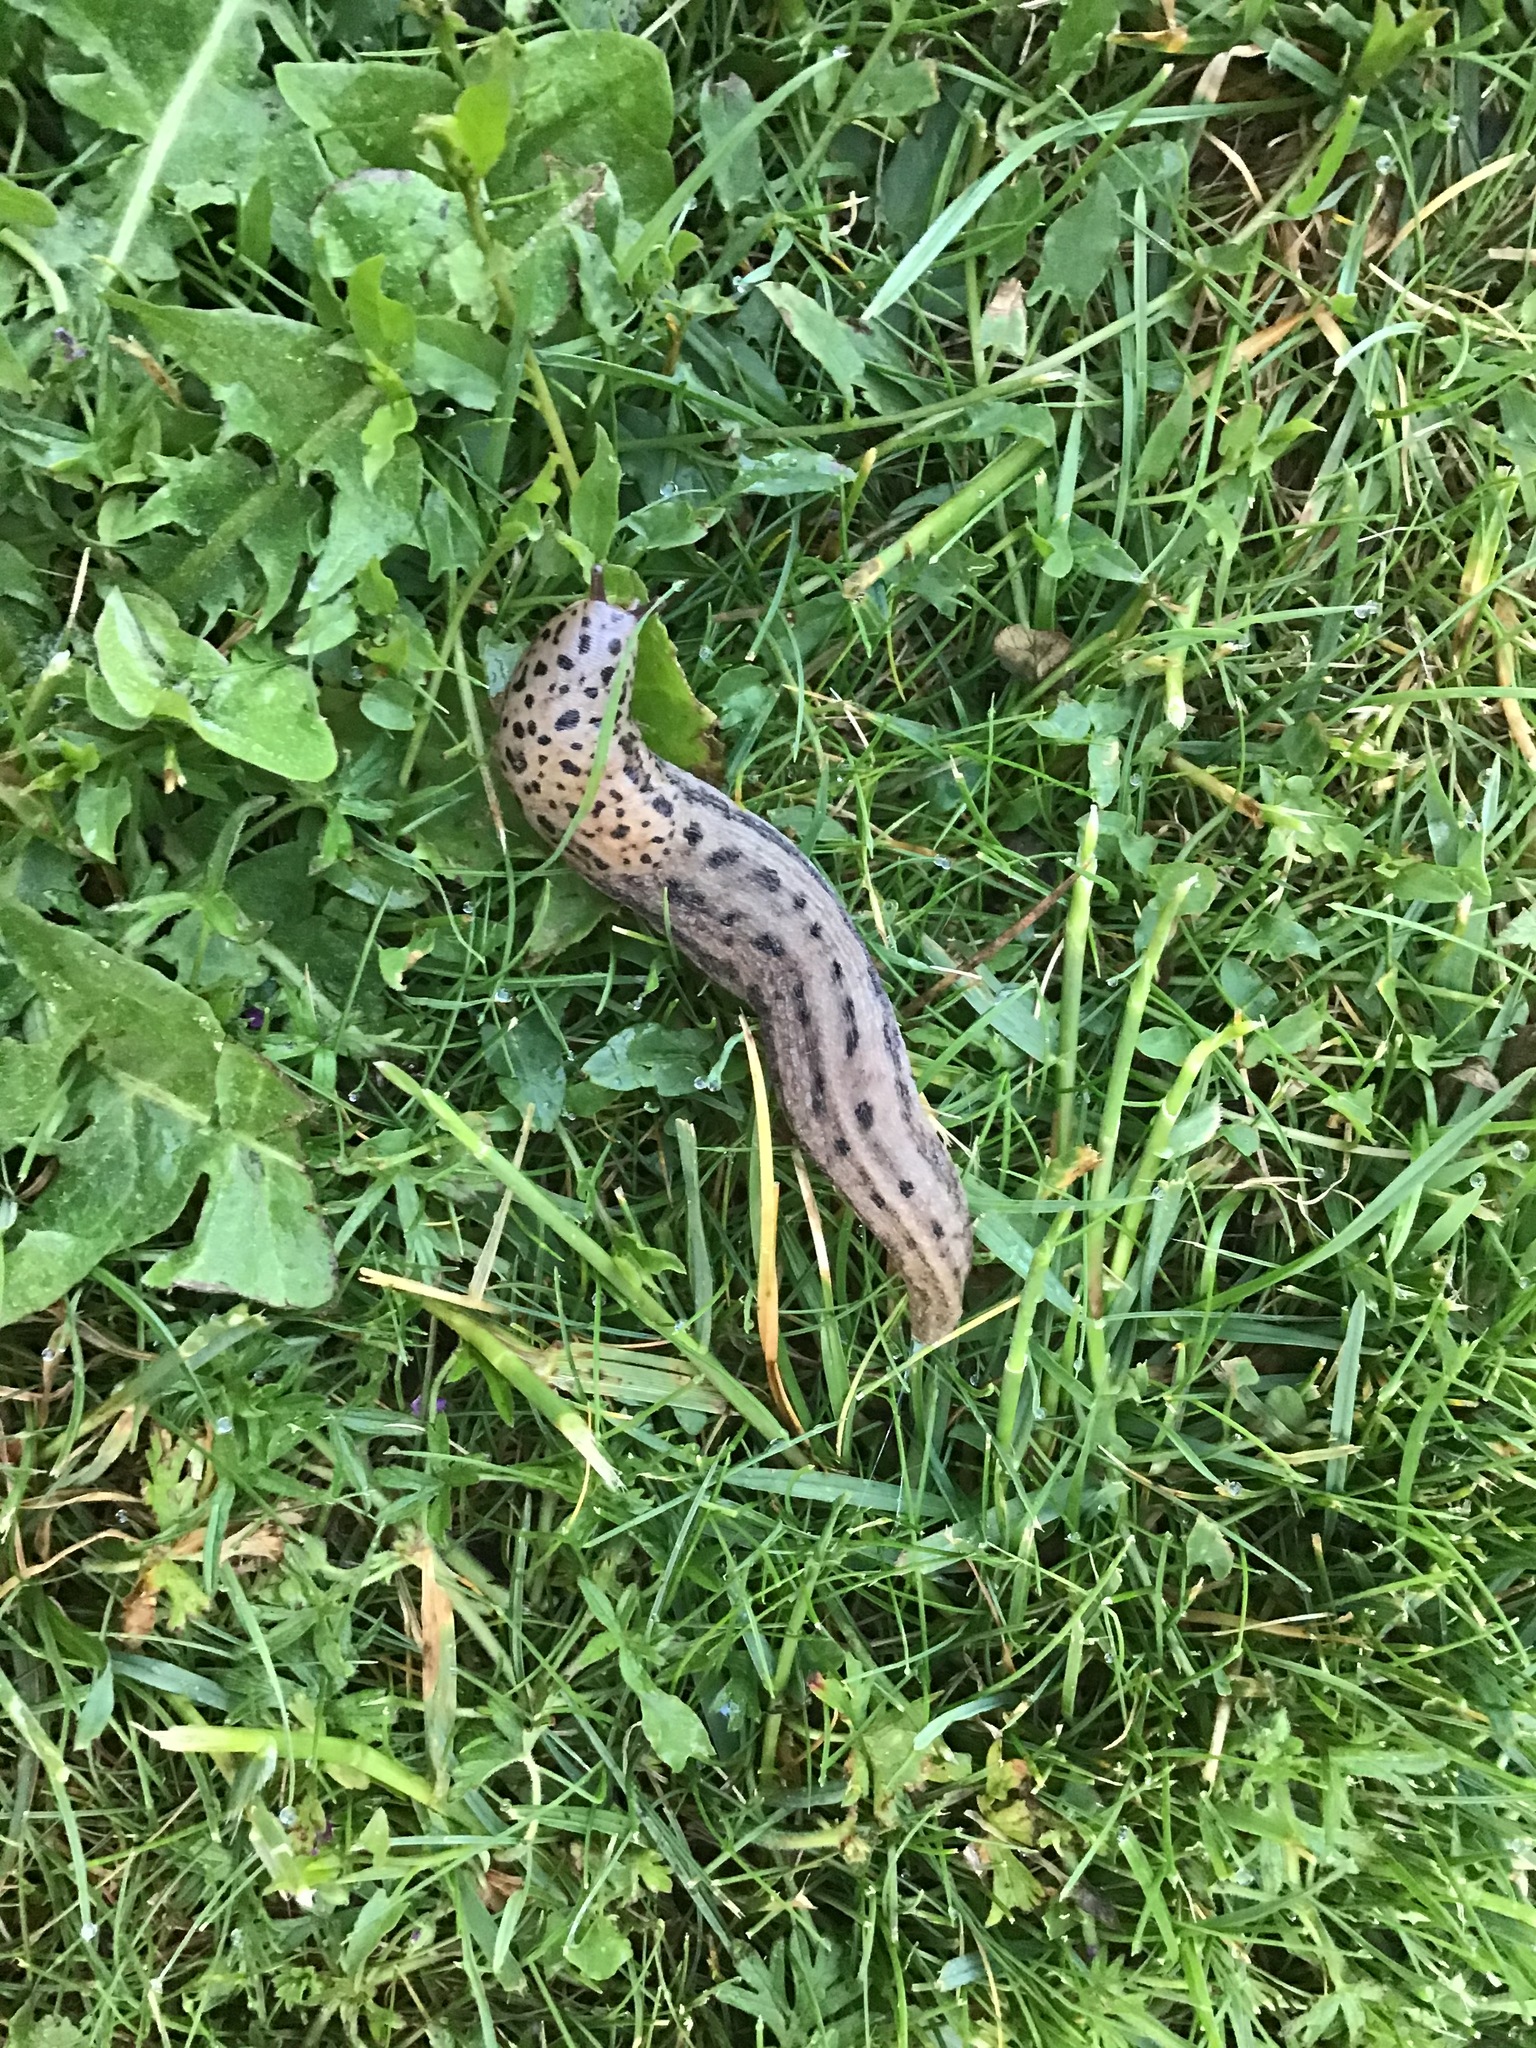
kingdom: Animalia
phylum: Mollusca
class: Gastropoda
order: Stylommatophora
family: Limacidae
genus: Limax
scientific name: Limax maximus
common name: Great grey slug
